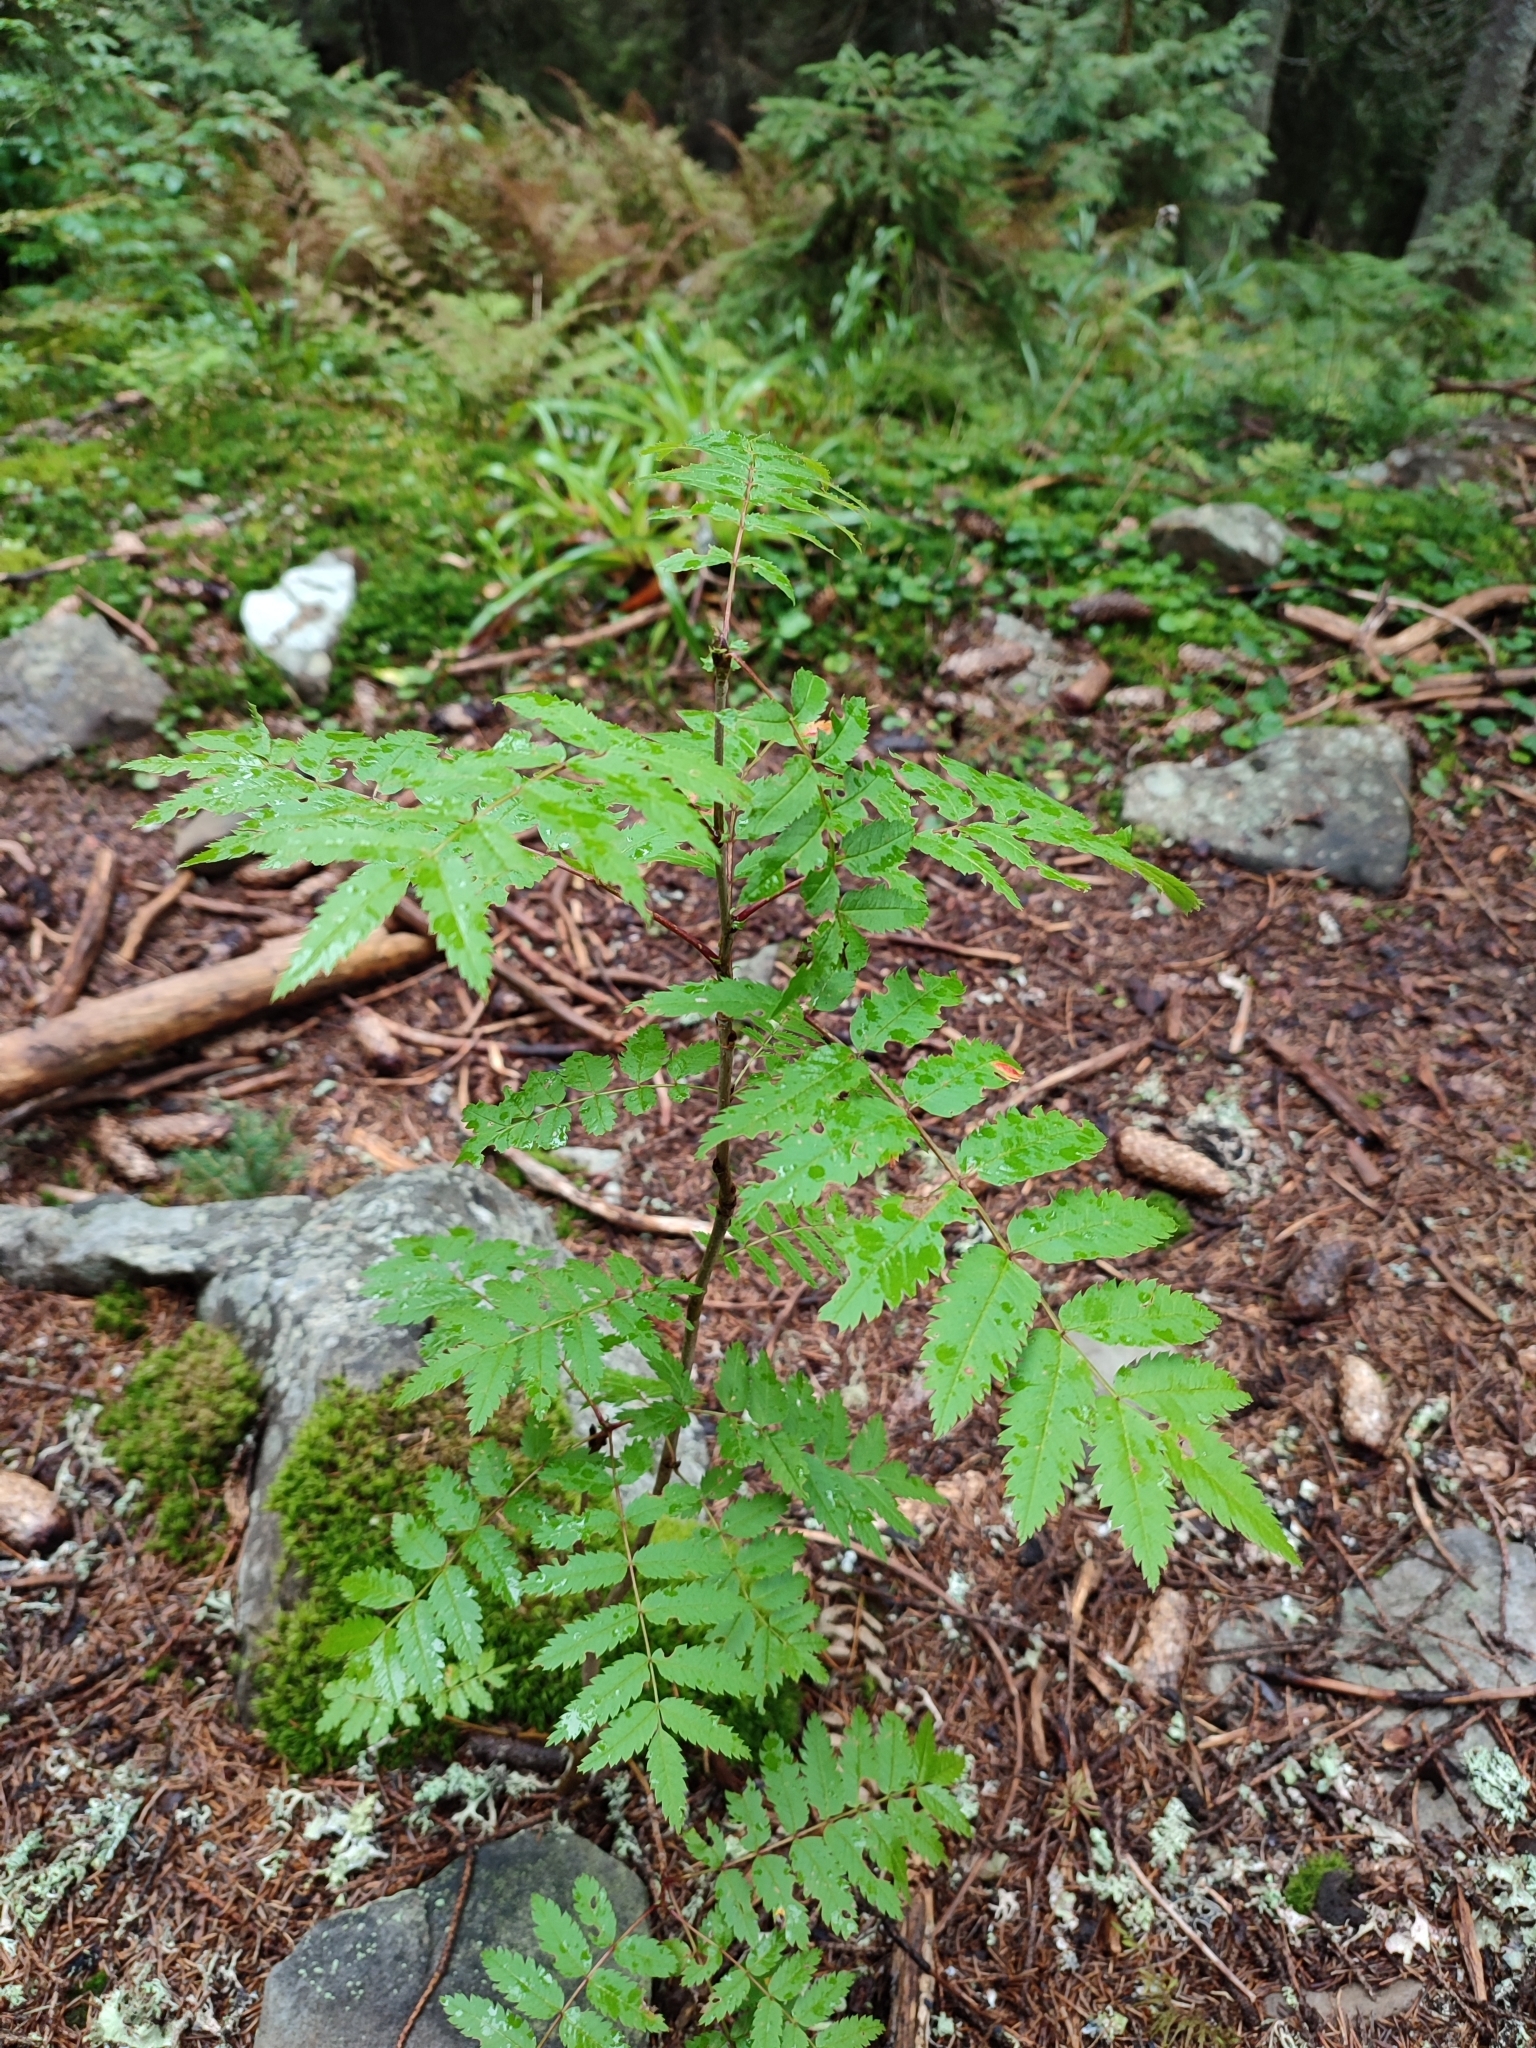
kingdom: Plantae
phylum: Tracheophyta
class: Magnoliopsida
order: Rosales
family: Rosaceae
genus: Sorbus
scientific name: Sorbus aucuparia
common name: Rowan
